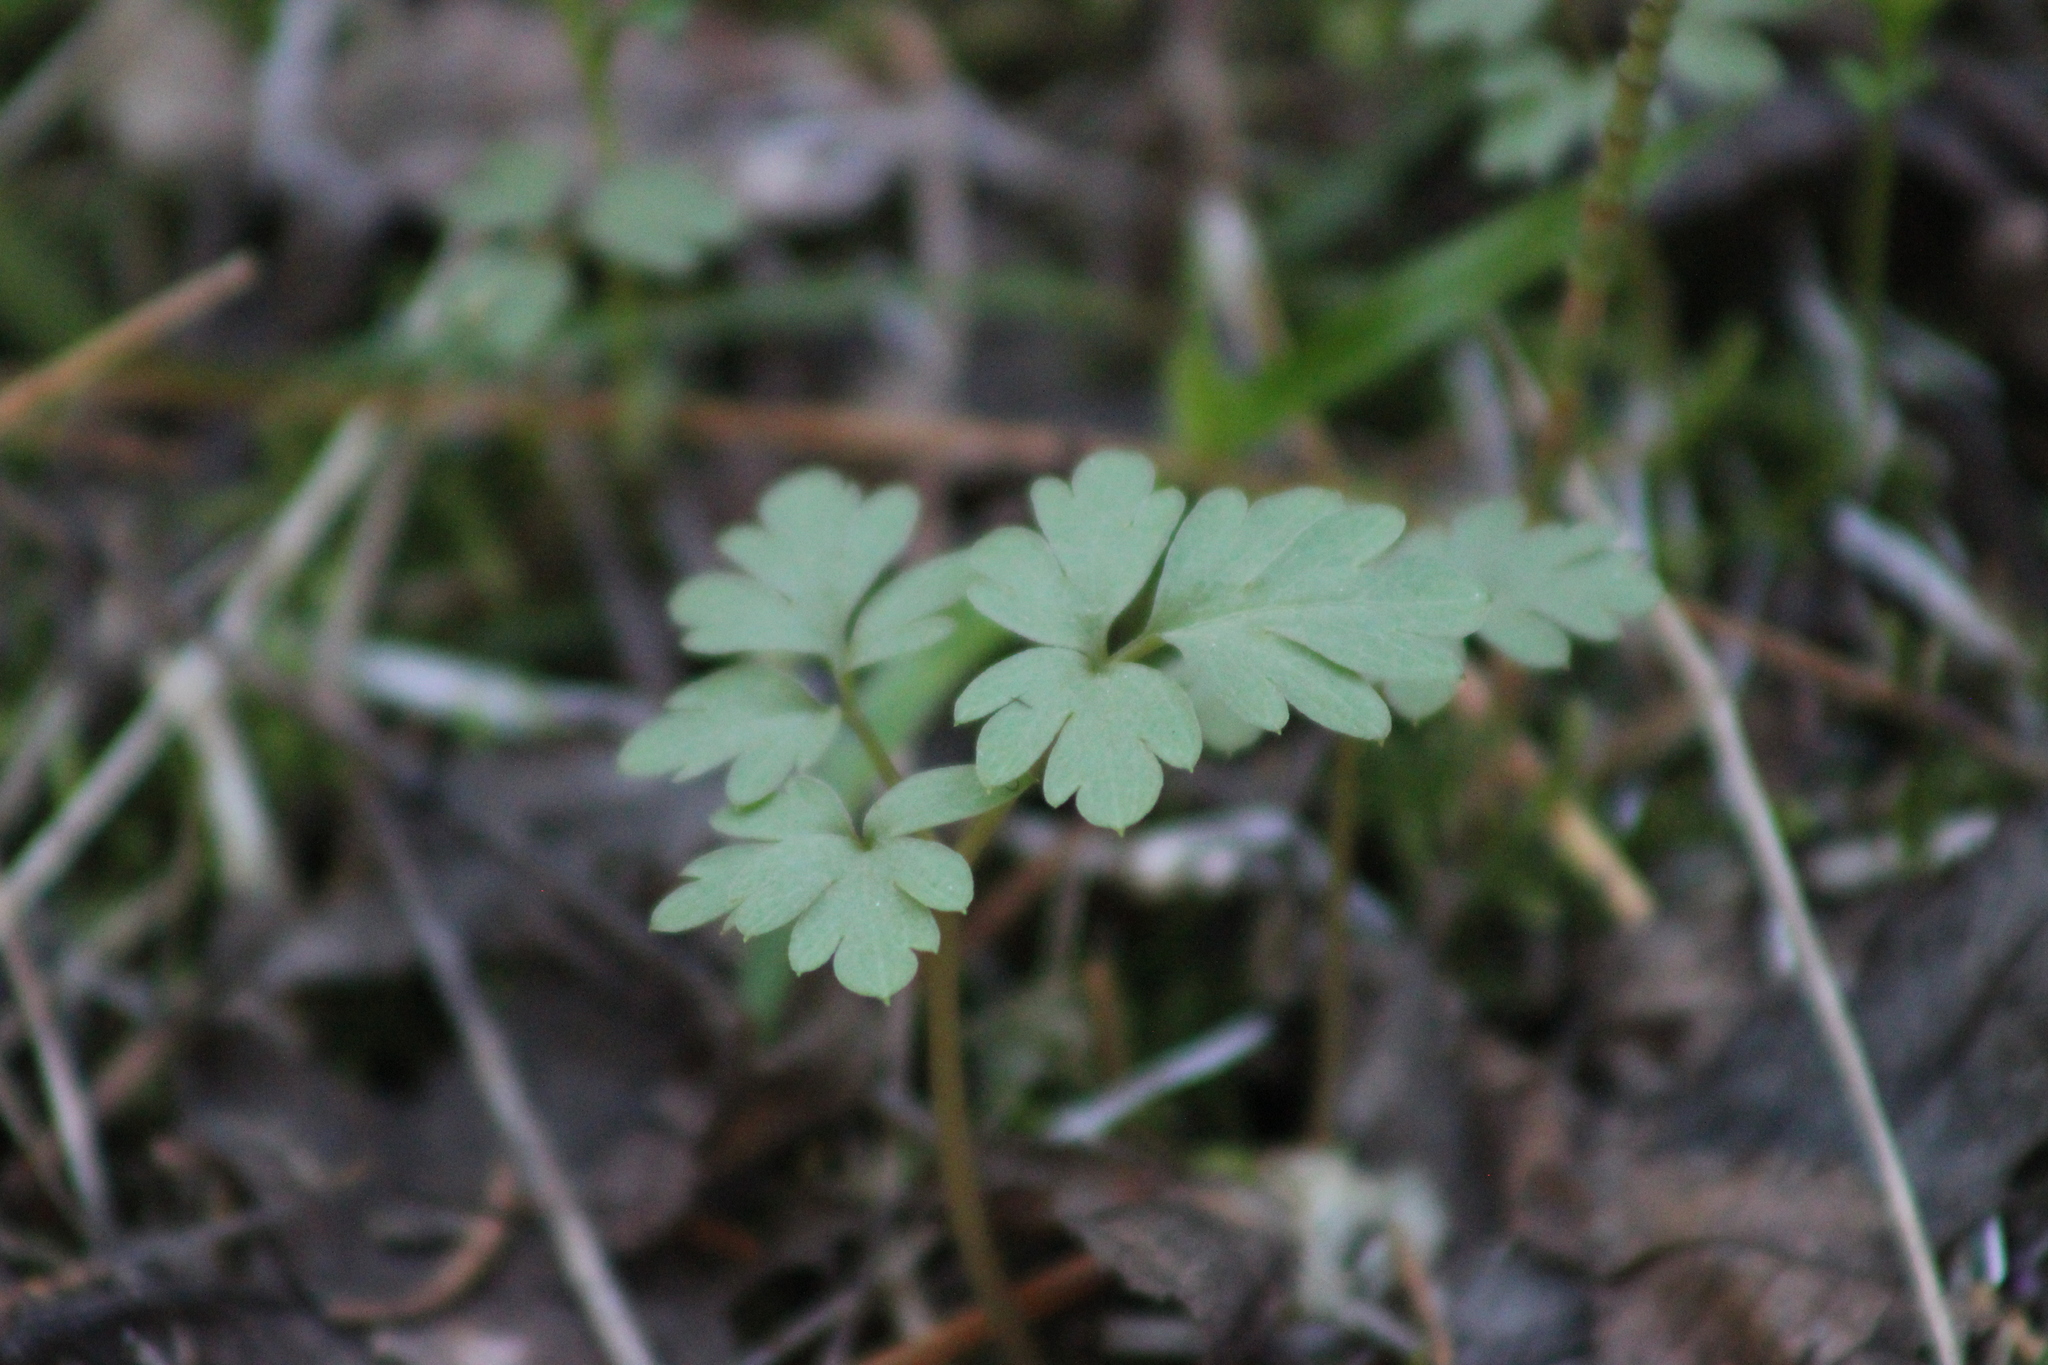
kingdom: Plantae
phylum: Tracheophyta
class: Magnoliopsida
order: Dipsacales
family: Viburnaceae
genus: Adoxa
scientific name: Adoxa moschatellina
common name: Moschatel
